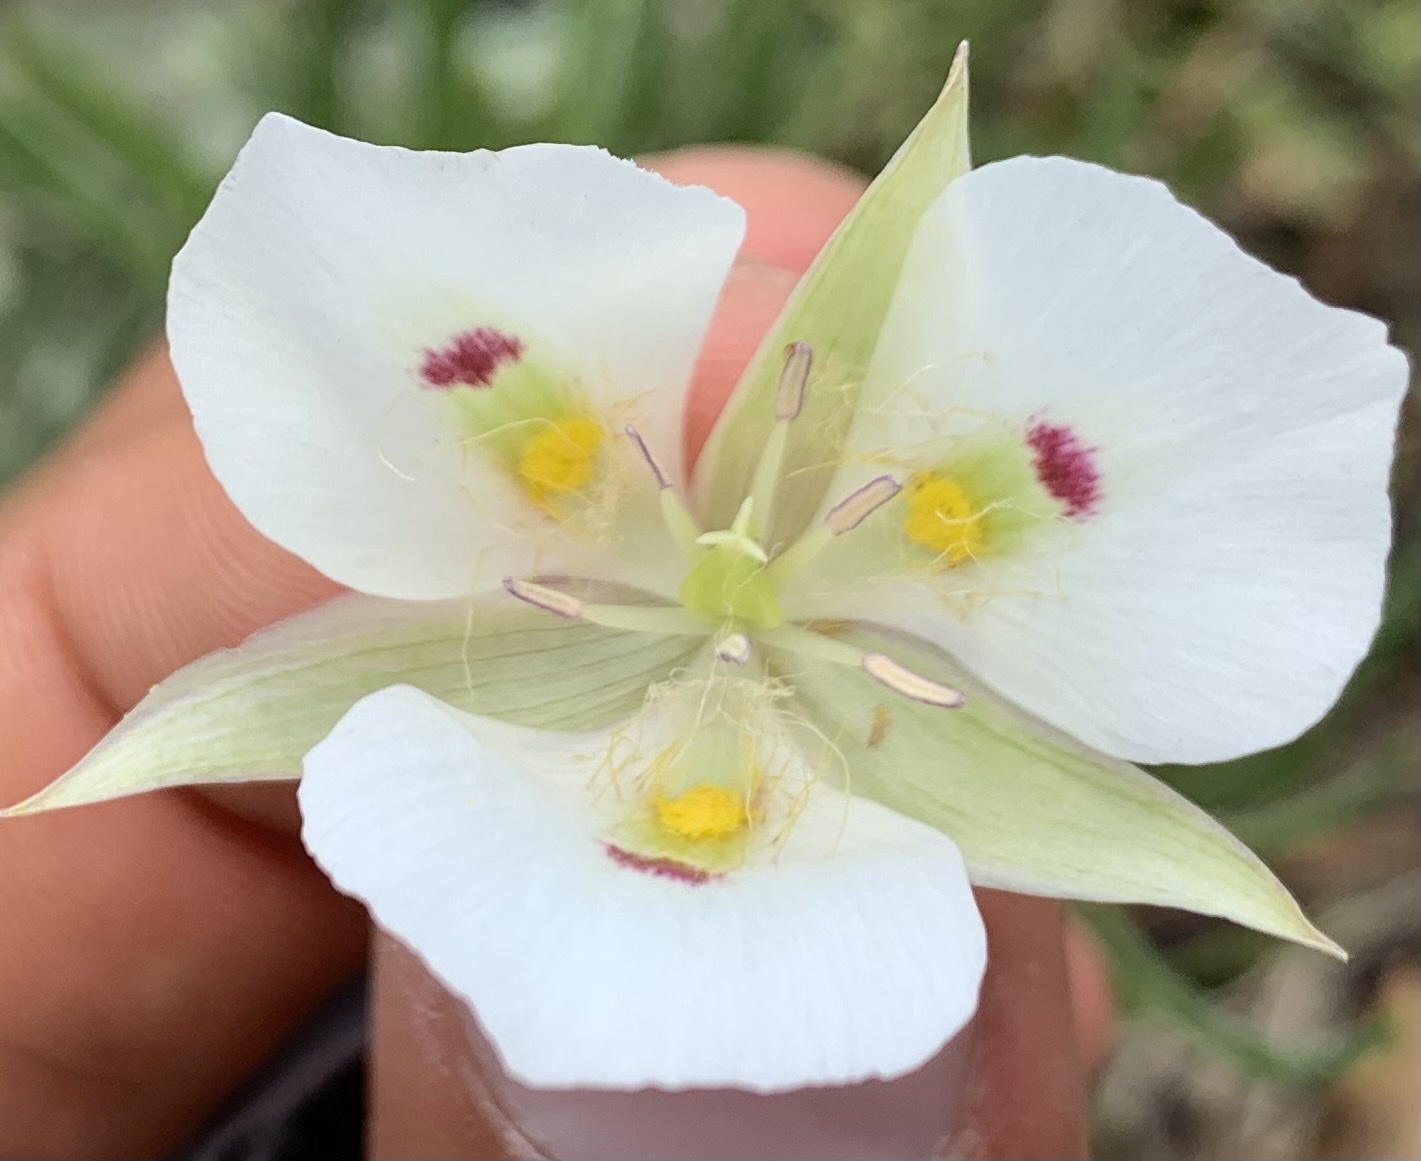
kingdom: Plantae
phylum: Tracheophyta
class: Liliopsida
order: Liliales
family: Liliaceae
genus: Calochortus
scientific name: Calochortus eurycarpus
